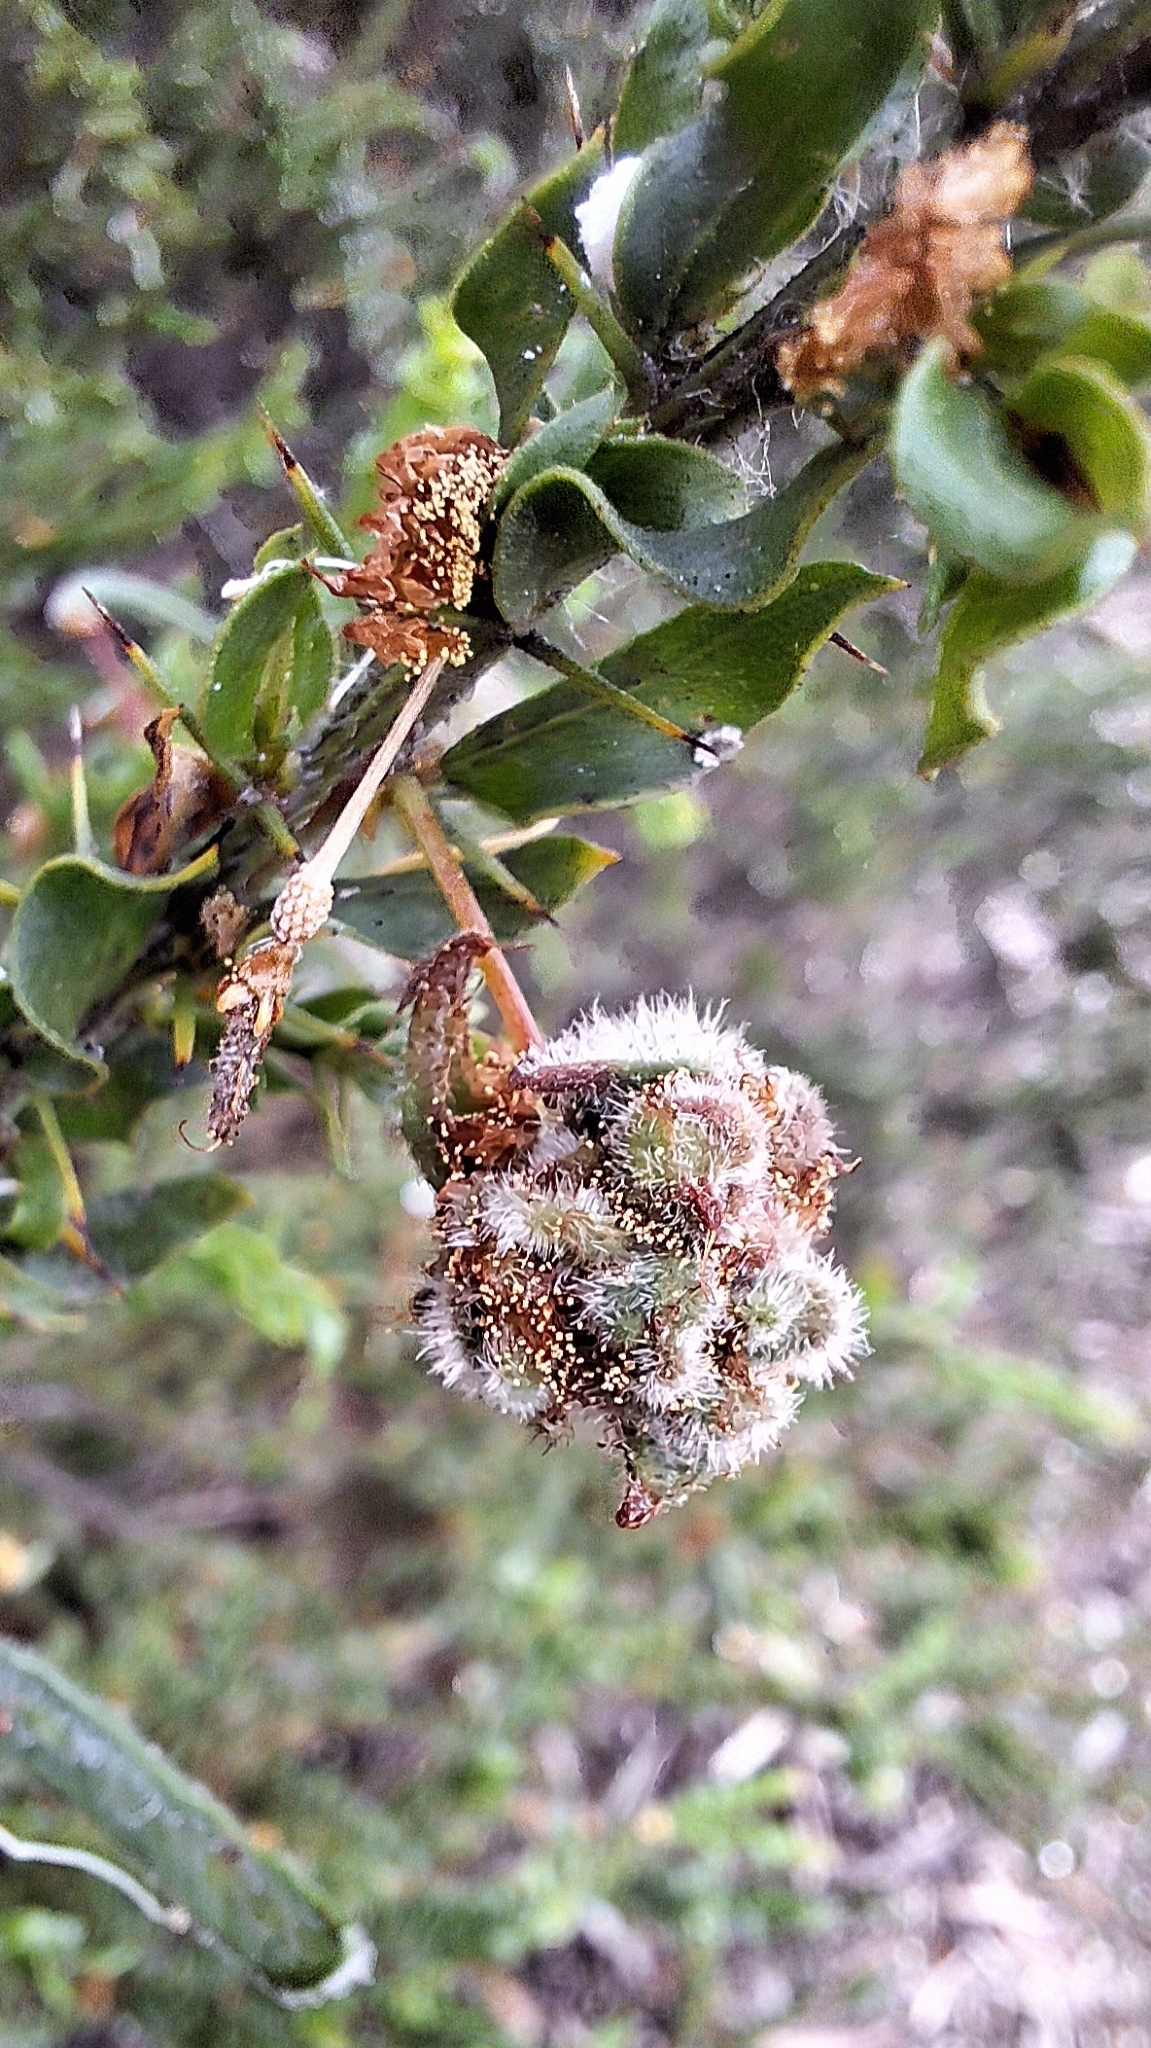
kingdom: Plantae
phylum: Tracheophyta
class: Magnoliopsida
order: Fabales
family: Fabaceae
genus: Acacia
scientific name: Acacia paradoxa
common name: Paradox acacia
